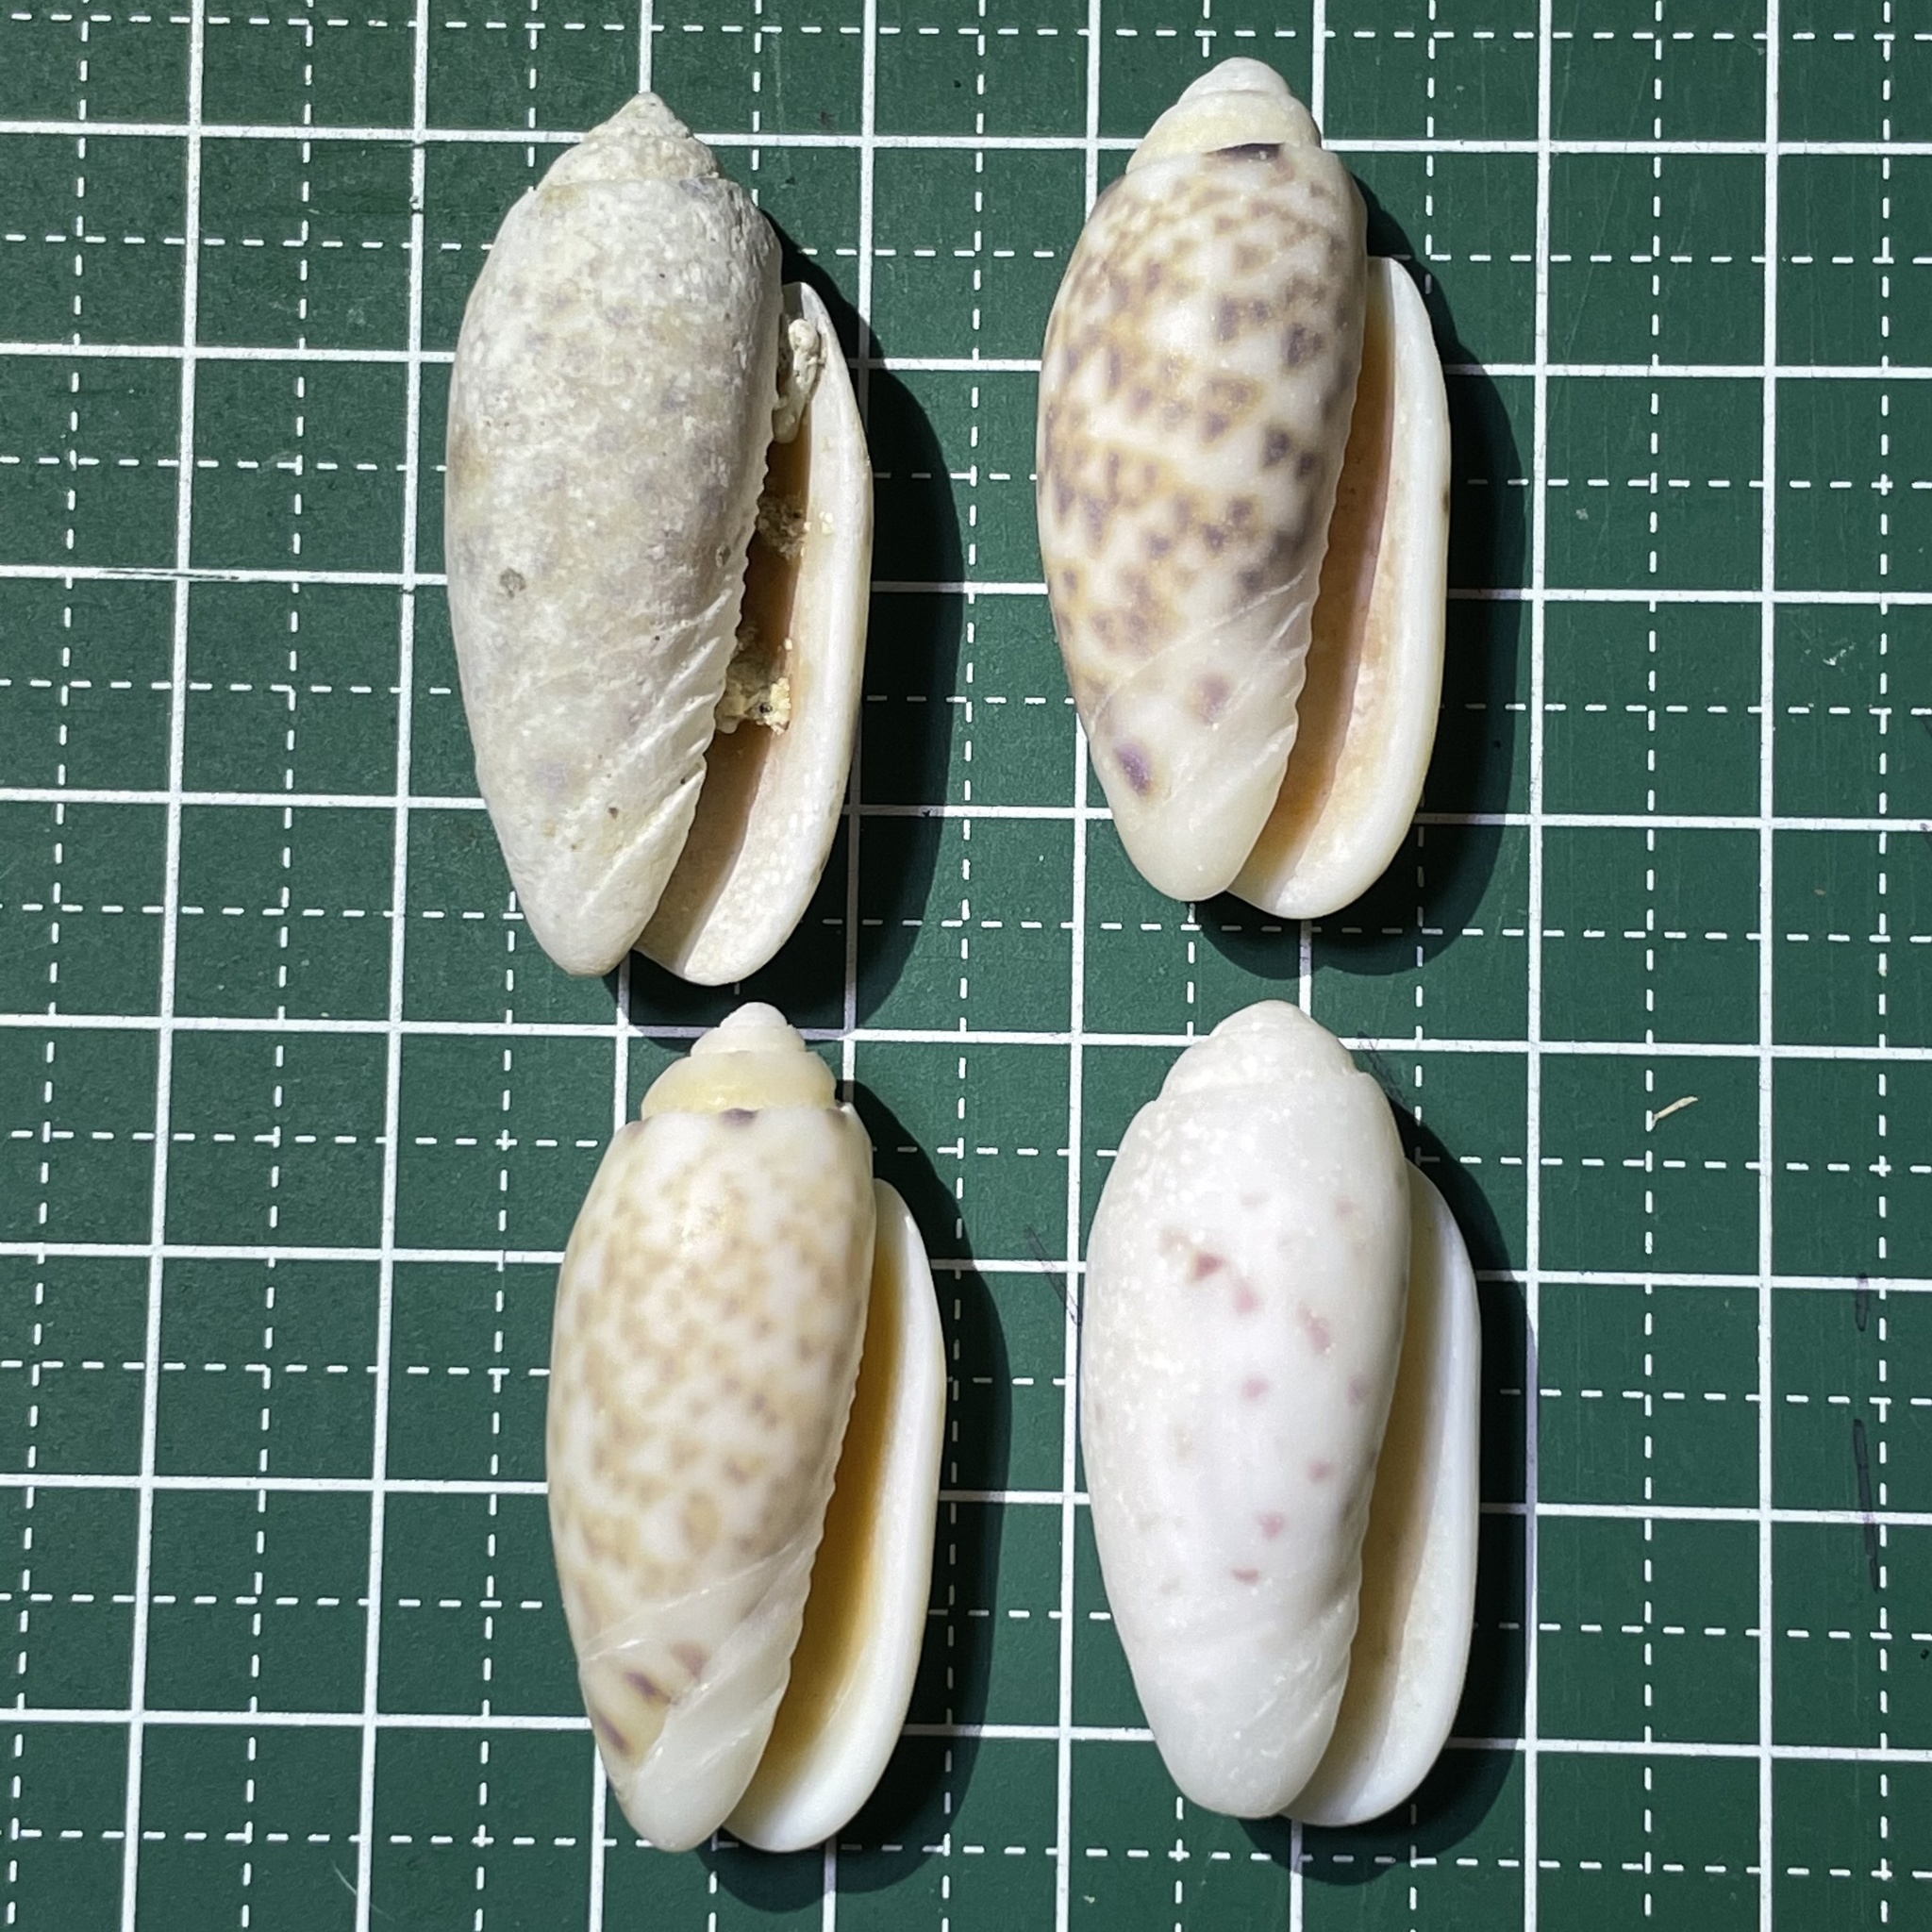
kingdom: Animalia
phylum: Mollusca
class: Gastropoda
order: Neogastropoda
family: Olividae
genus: Oliva
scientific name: Oliva amethystina
